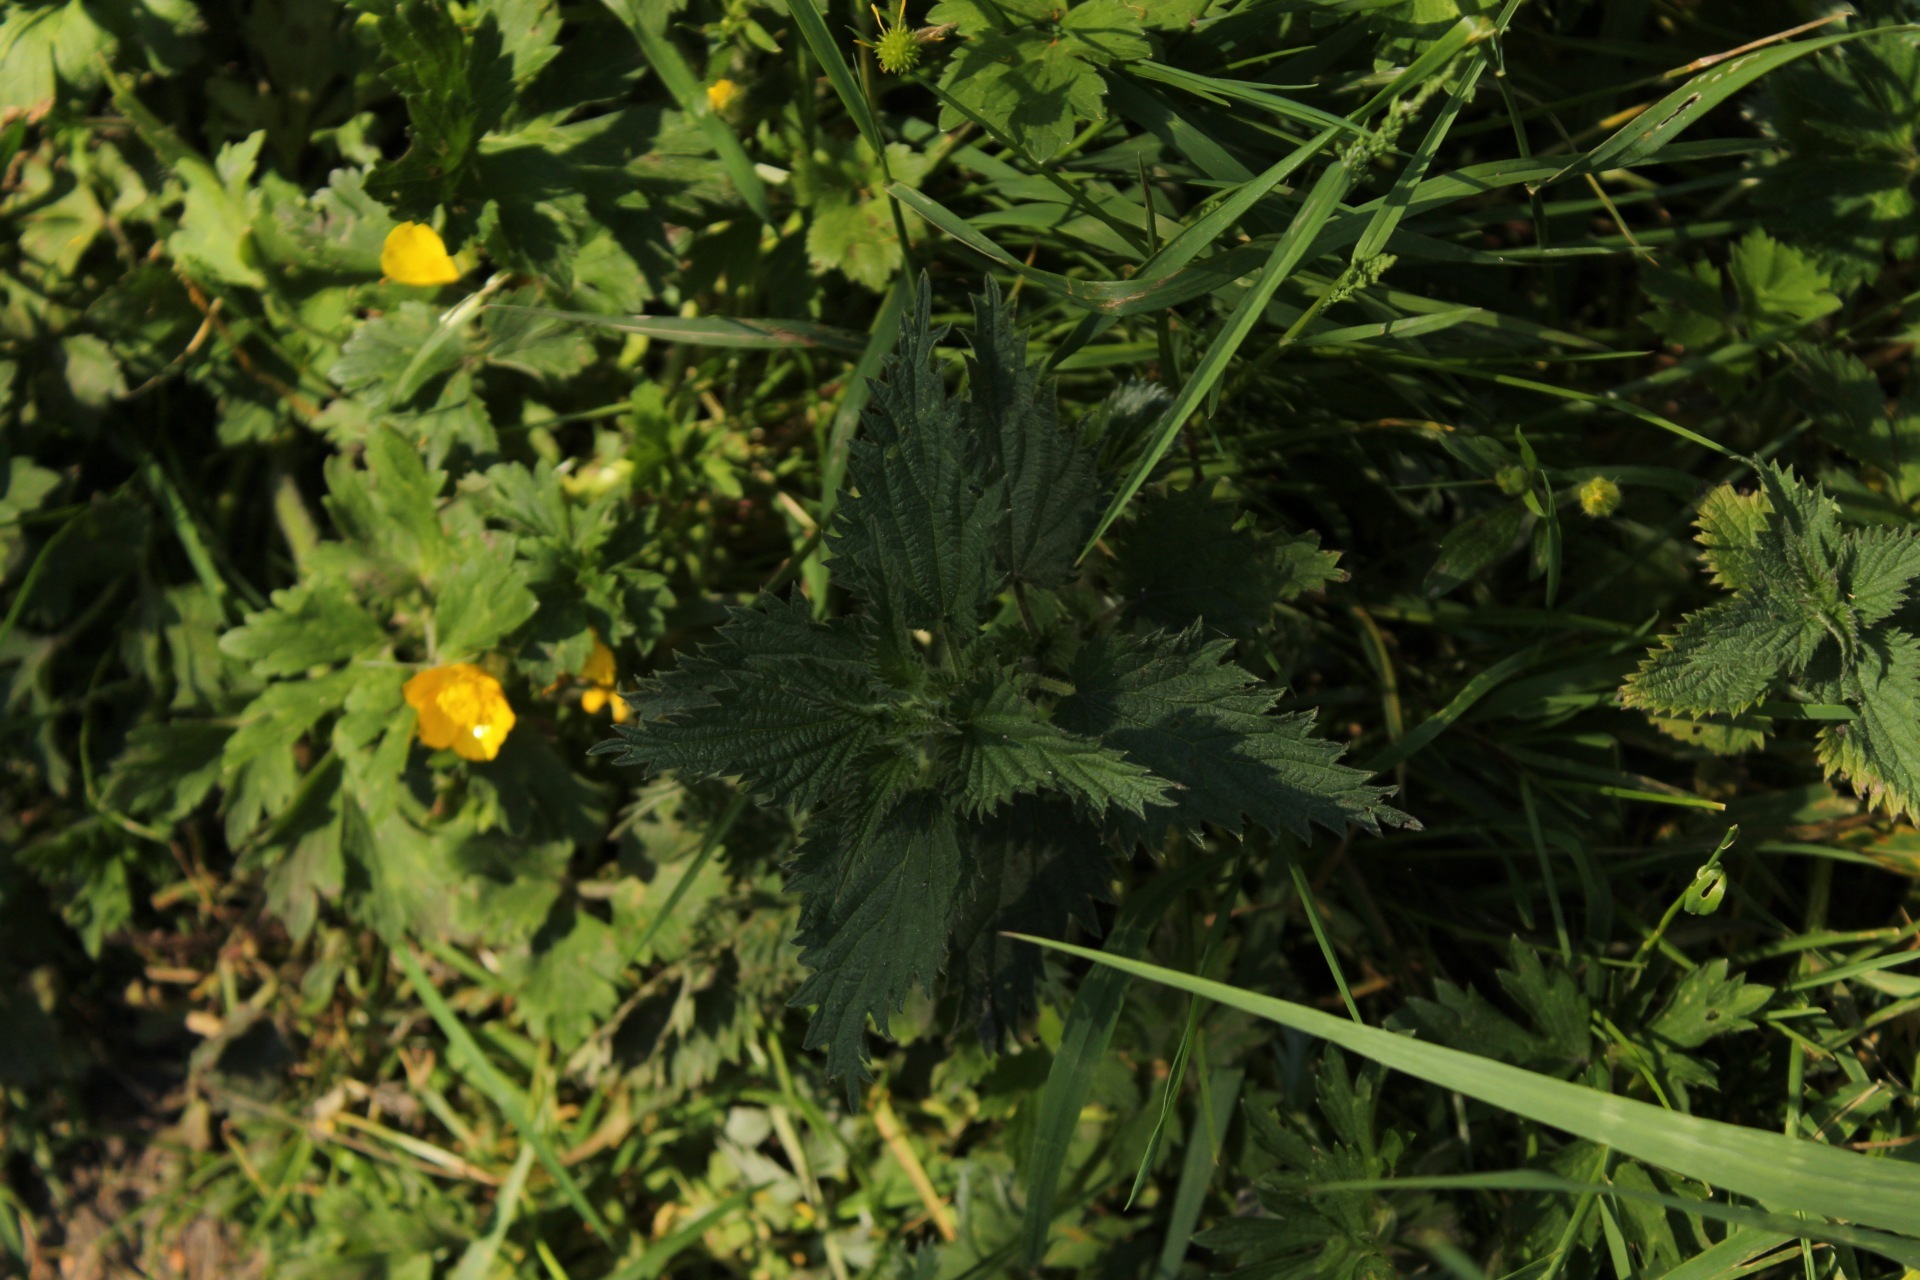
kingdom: Plantae
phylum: Tracheophyta
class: Magnoliopsida
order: Rosales
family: Urticaceae
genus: Urtica
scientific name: Urtica dioica
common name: Common nettle
